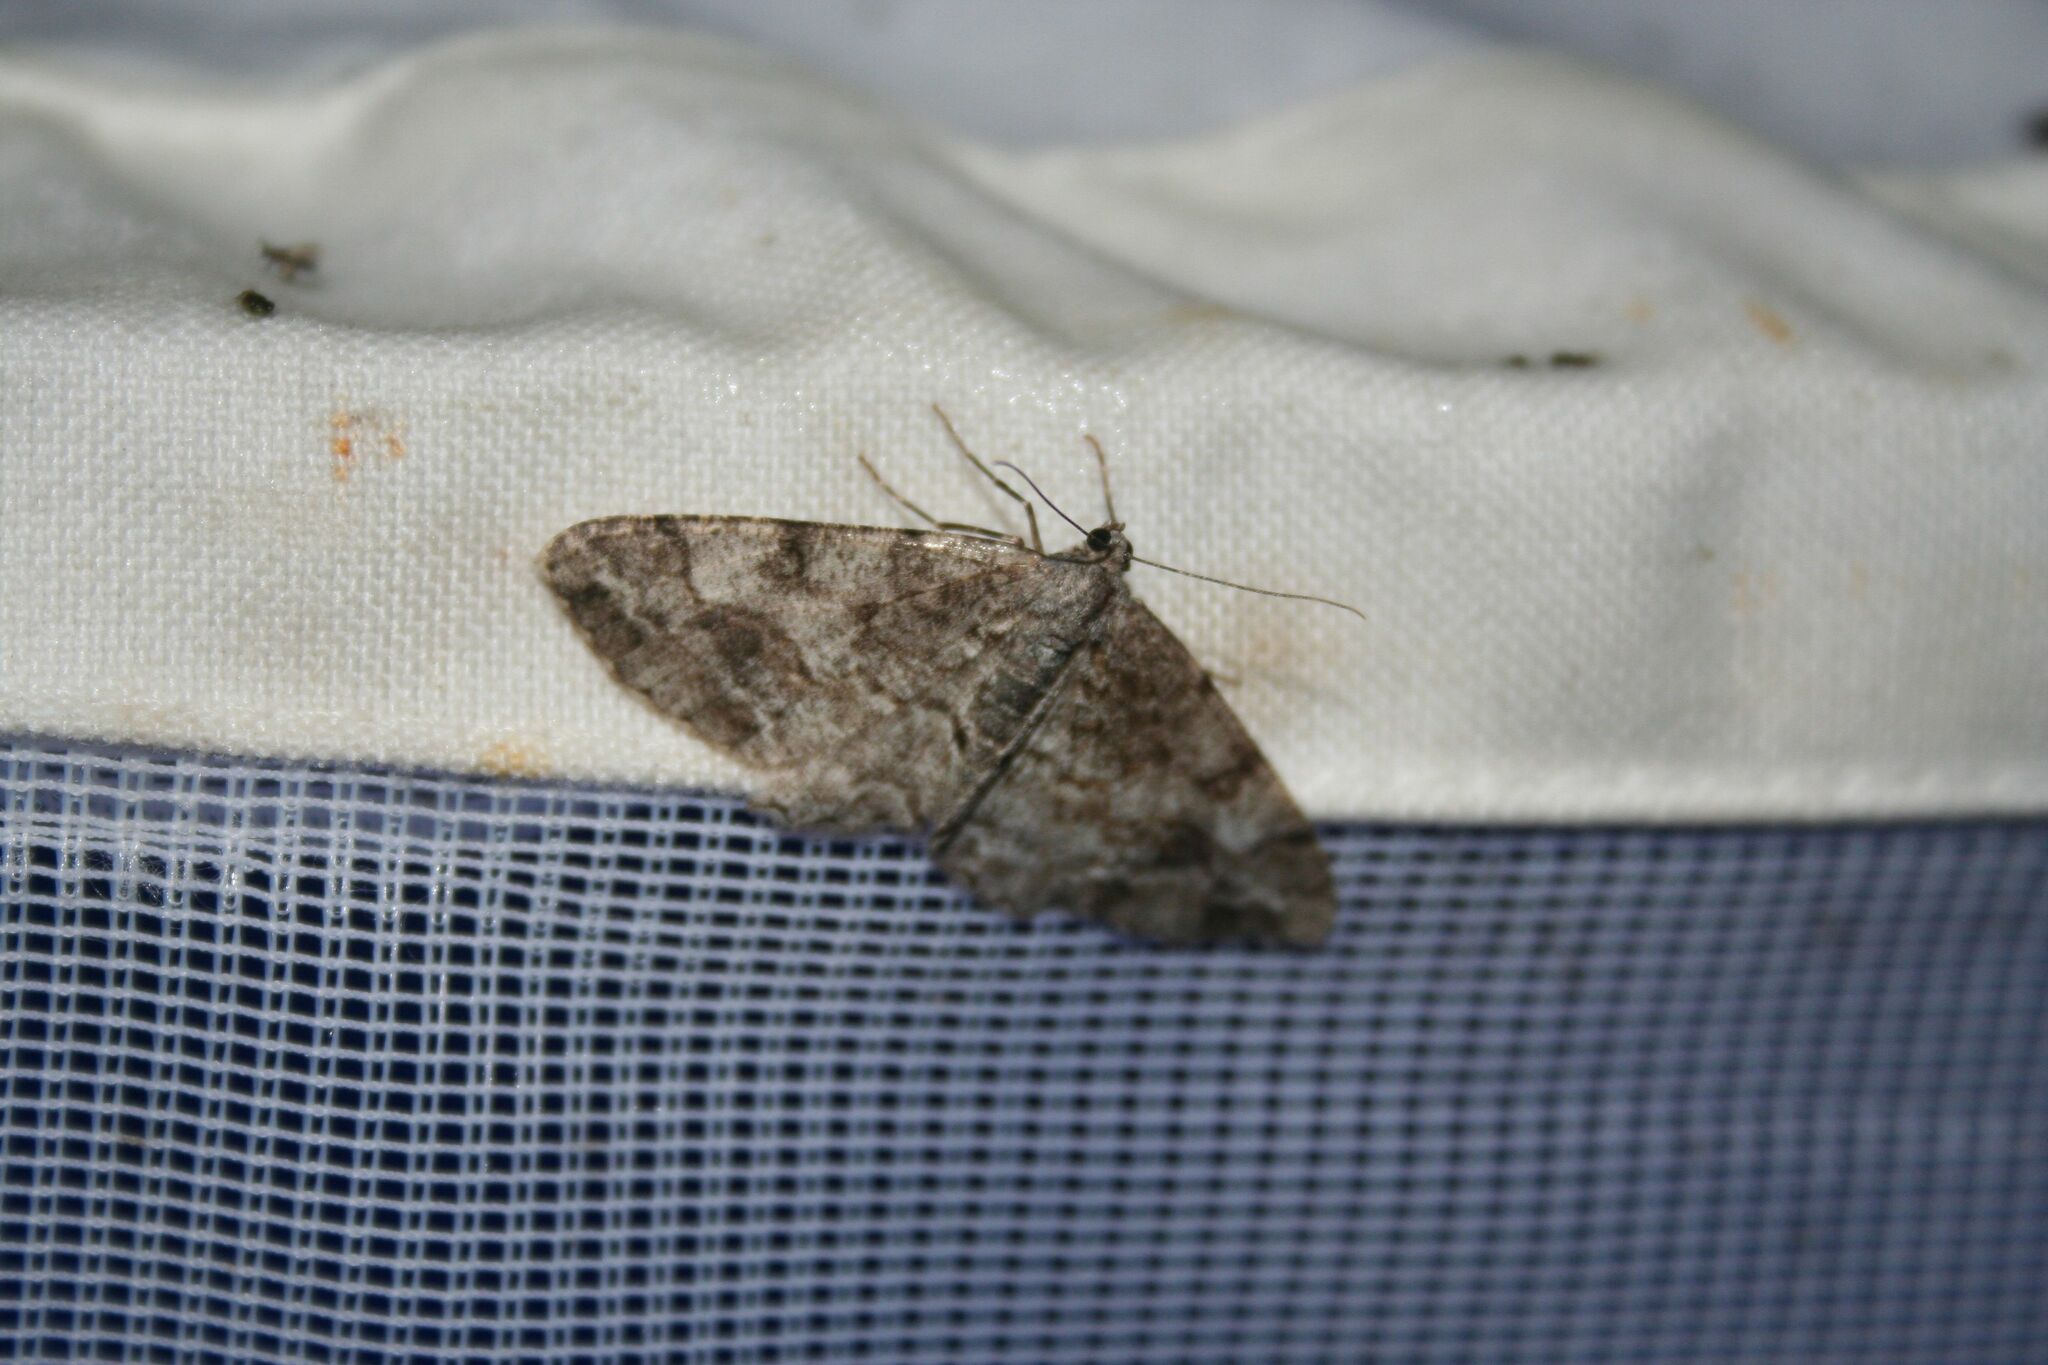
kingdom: Animalia
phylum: Arthropoda
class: Insecta
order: Lepidoptera
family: Geometridae
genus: Alcis
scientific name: Alcis repandata
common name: Mottled beauty
